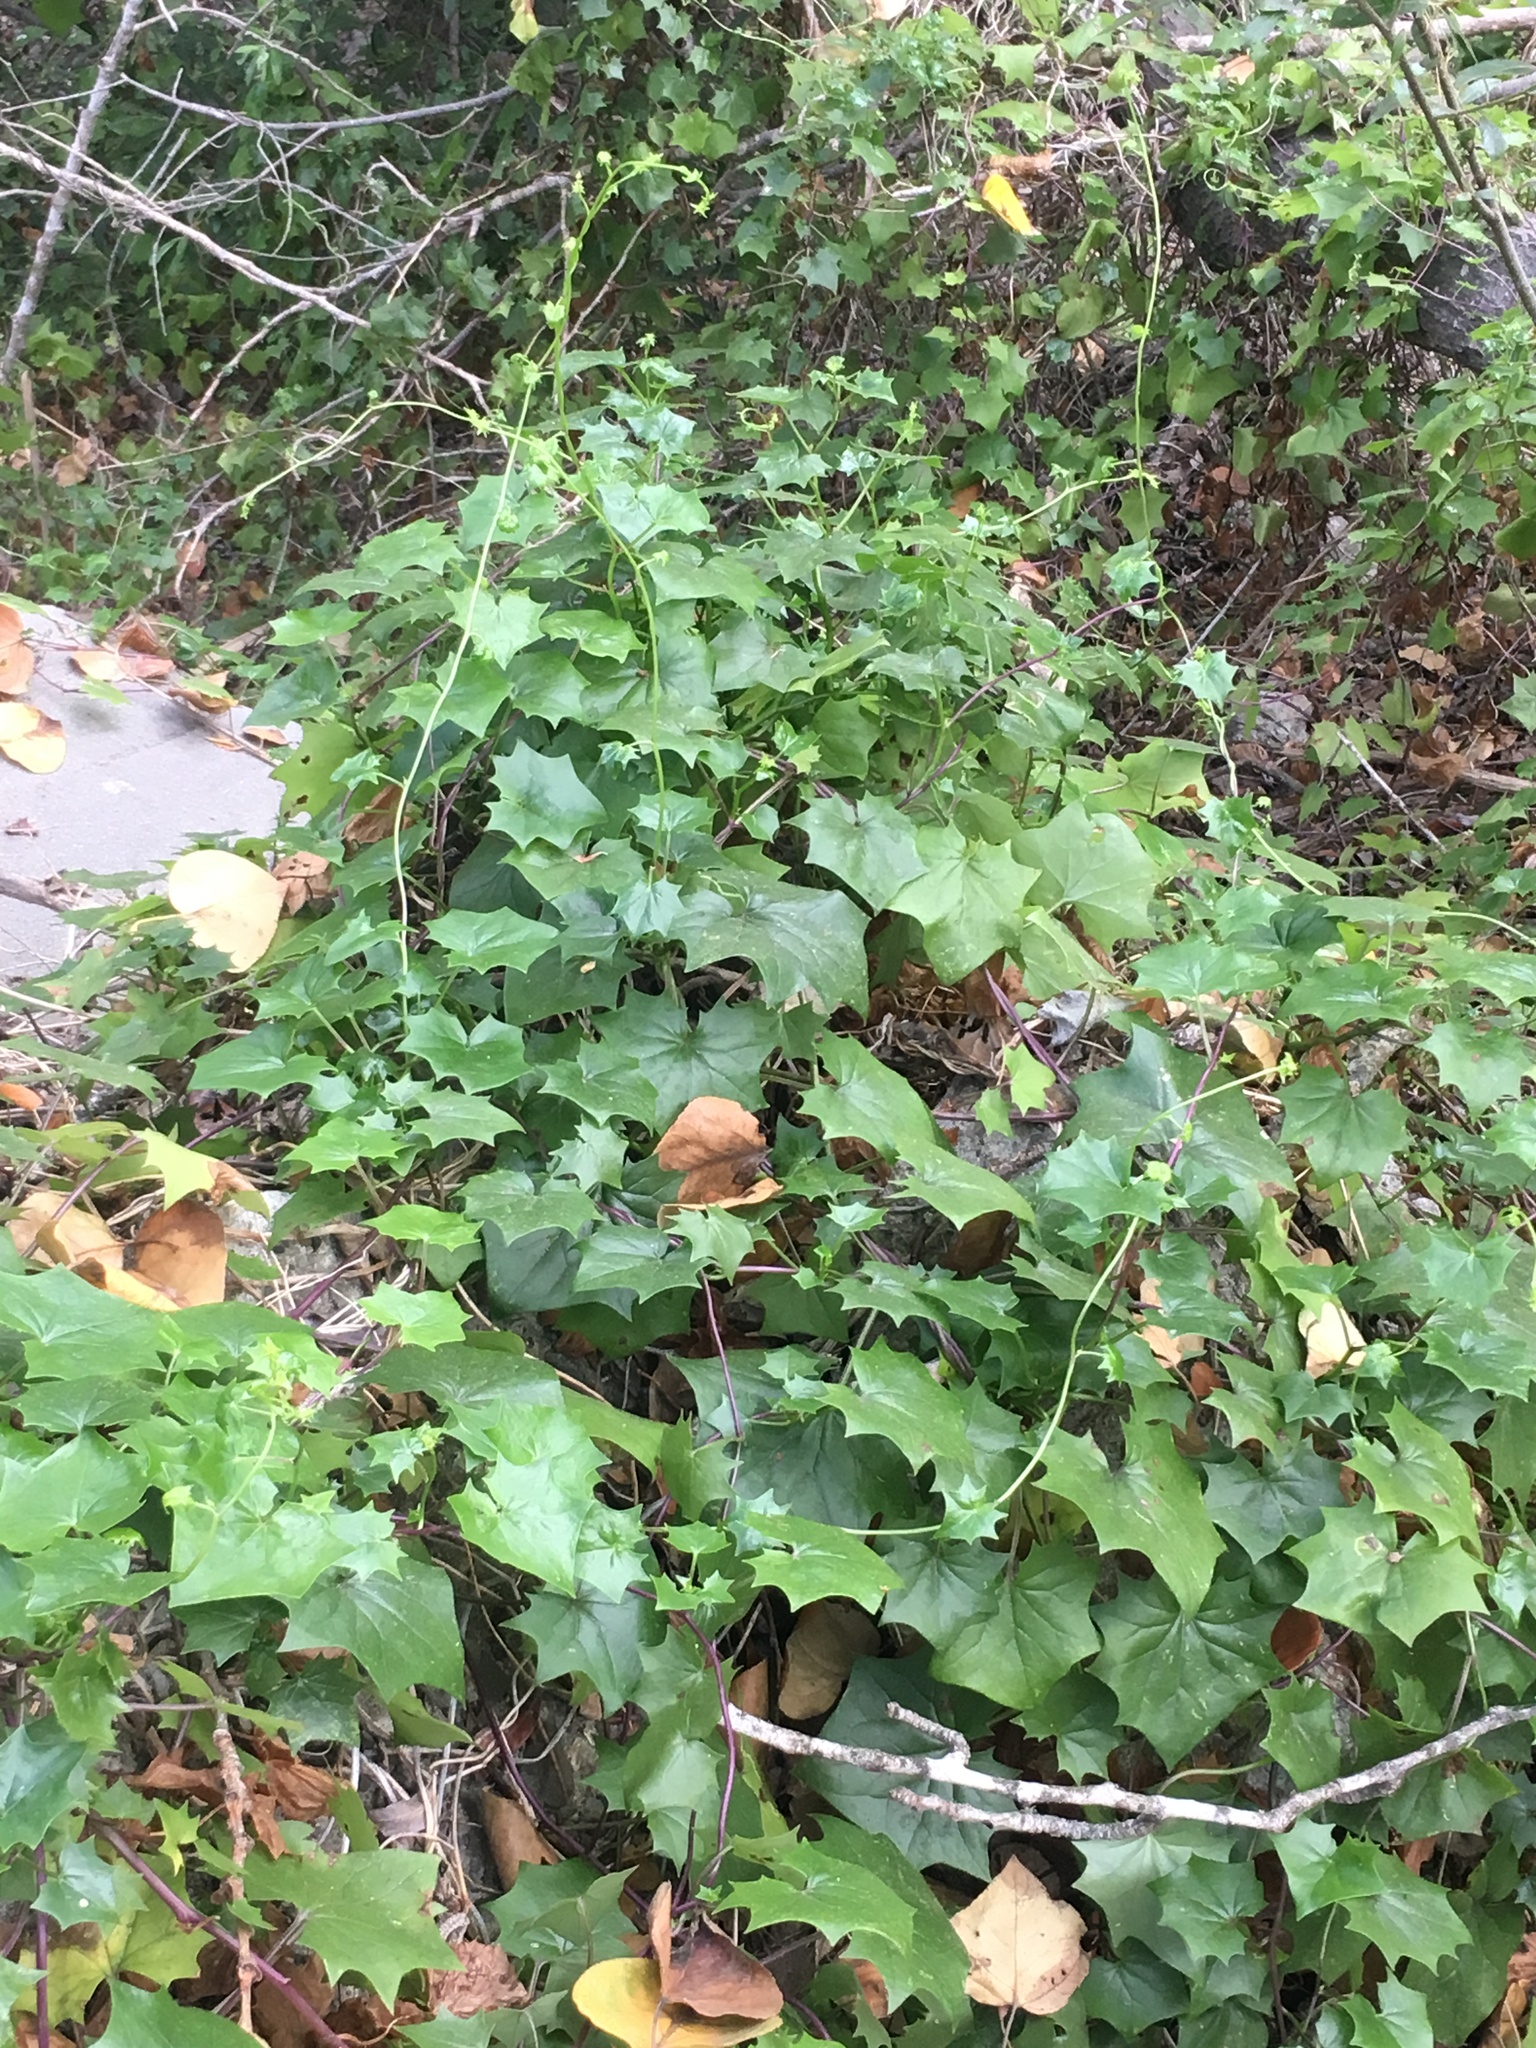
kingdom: Plantae
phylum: Tracheophyta
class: Magnoliopsida
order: Asterales
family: Asteraceae
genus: Delairea
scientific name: Delairea odorata
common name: Cape-ivy
